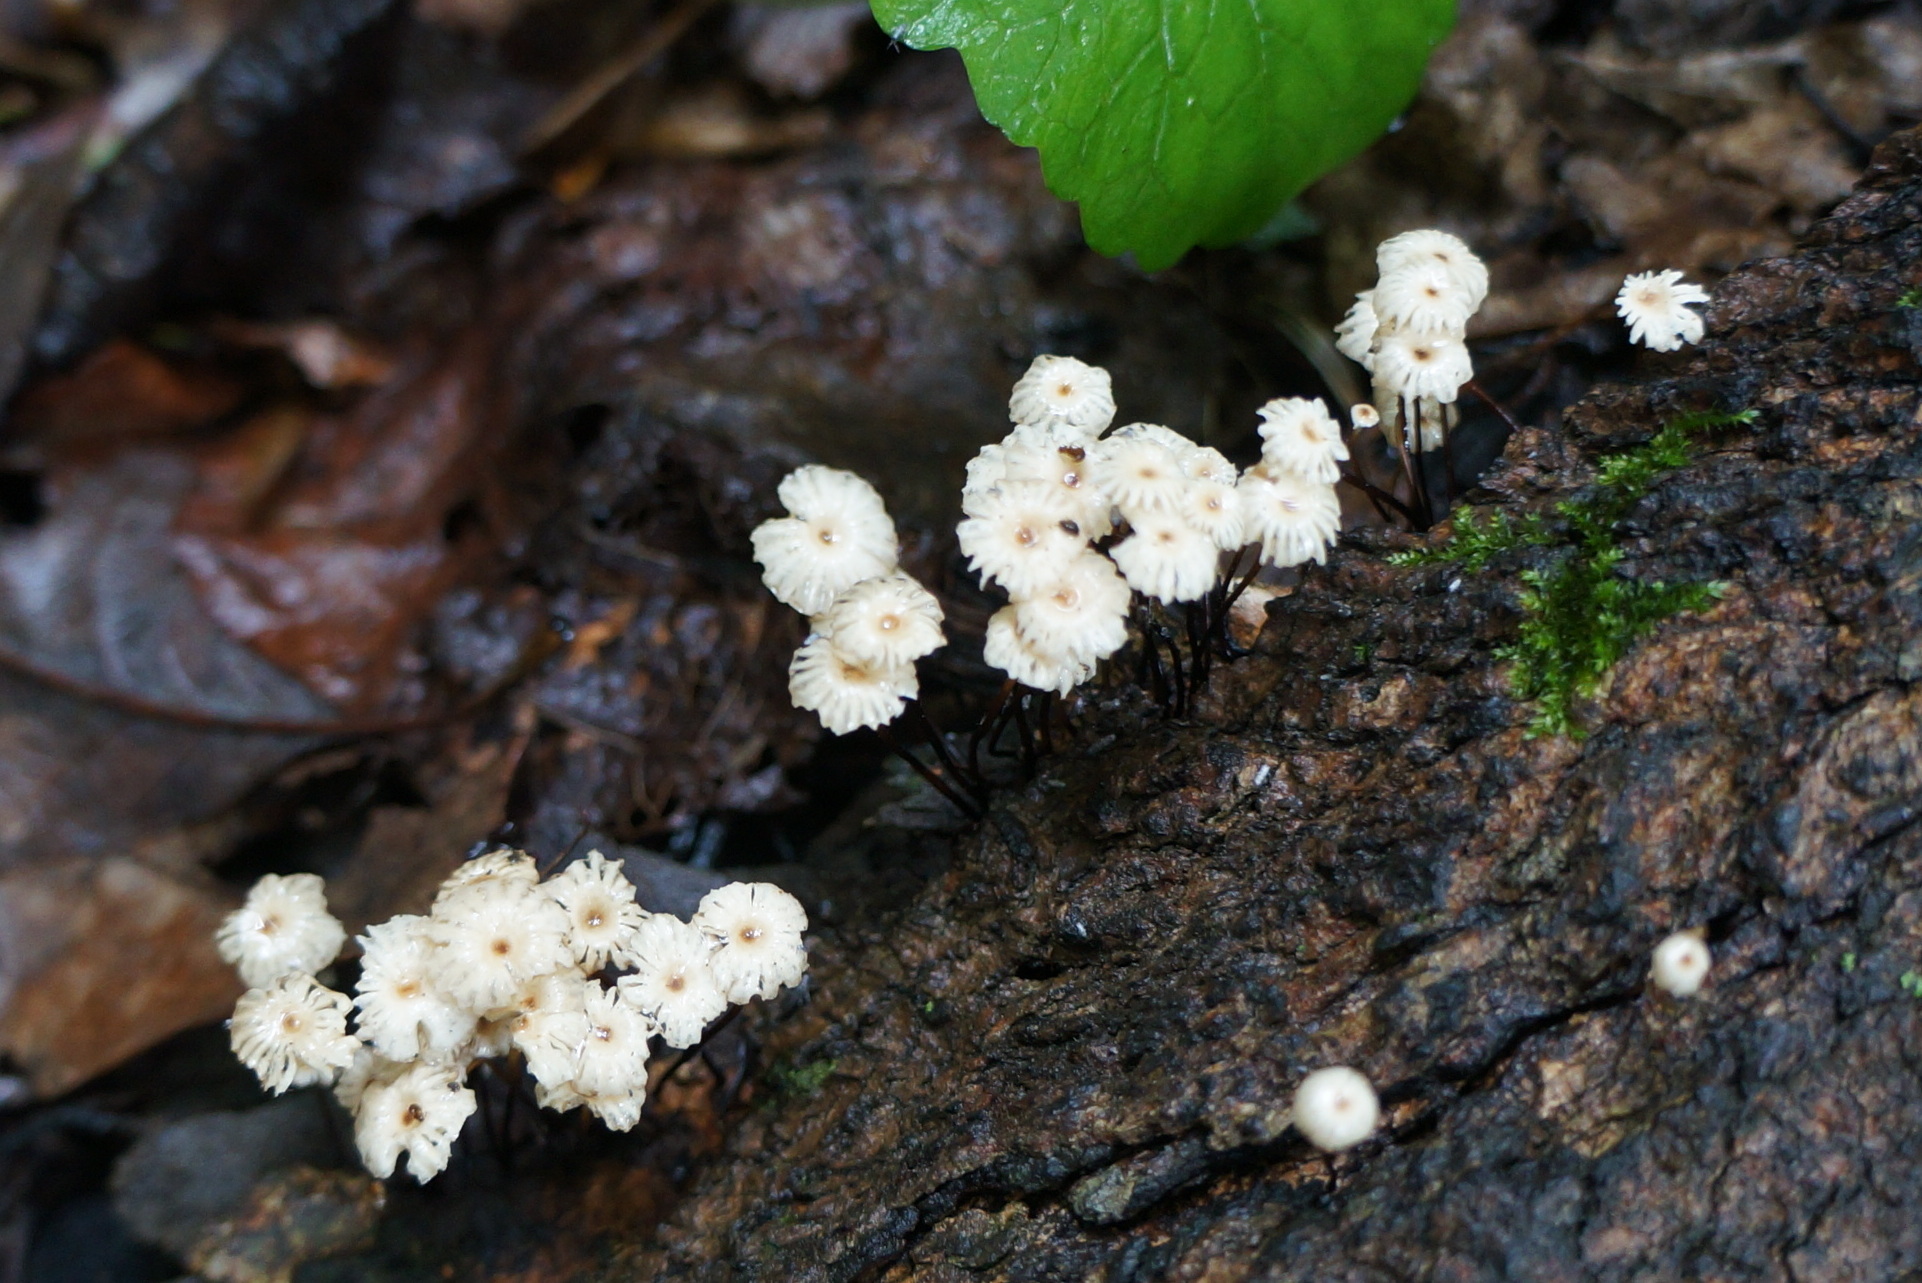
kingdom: Fungi
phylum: Basidiomycota
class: Agaricomycetes
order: Agaricales
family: Marasmiaceae
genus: Marasmius
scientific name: Marasmius rotula
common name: Collared parachute
